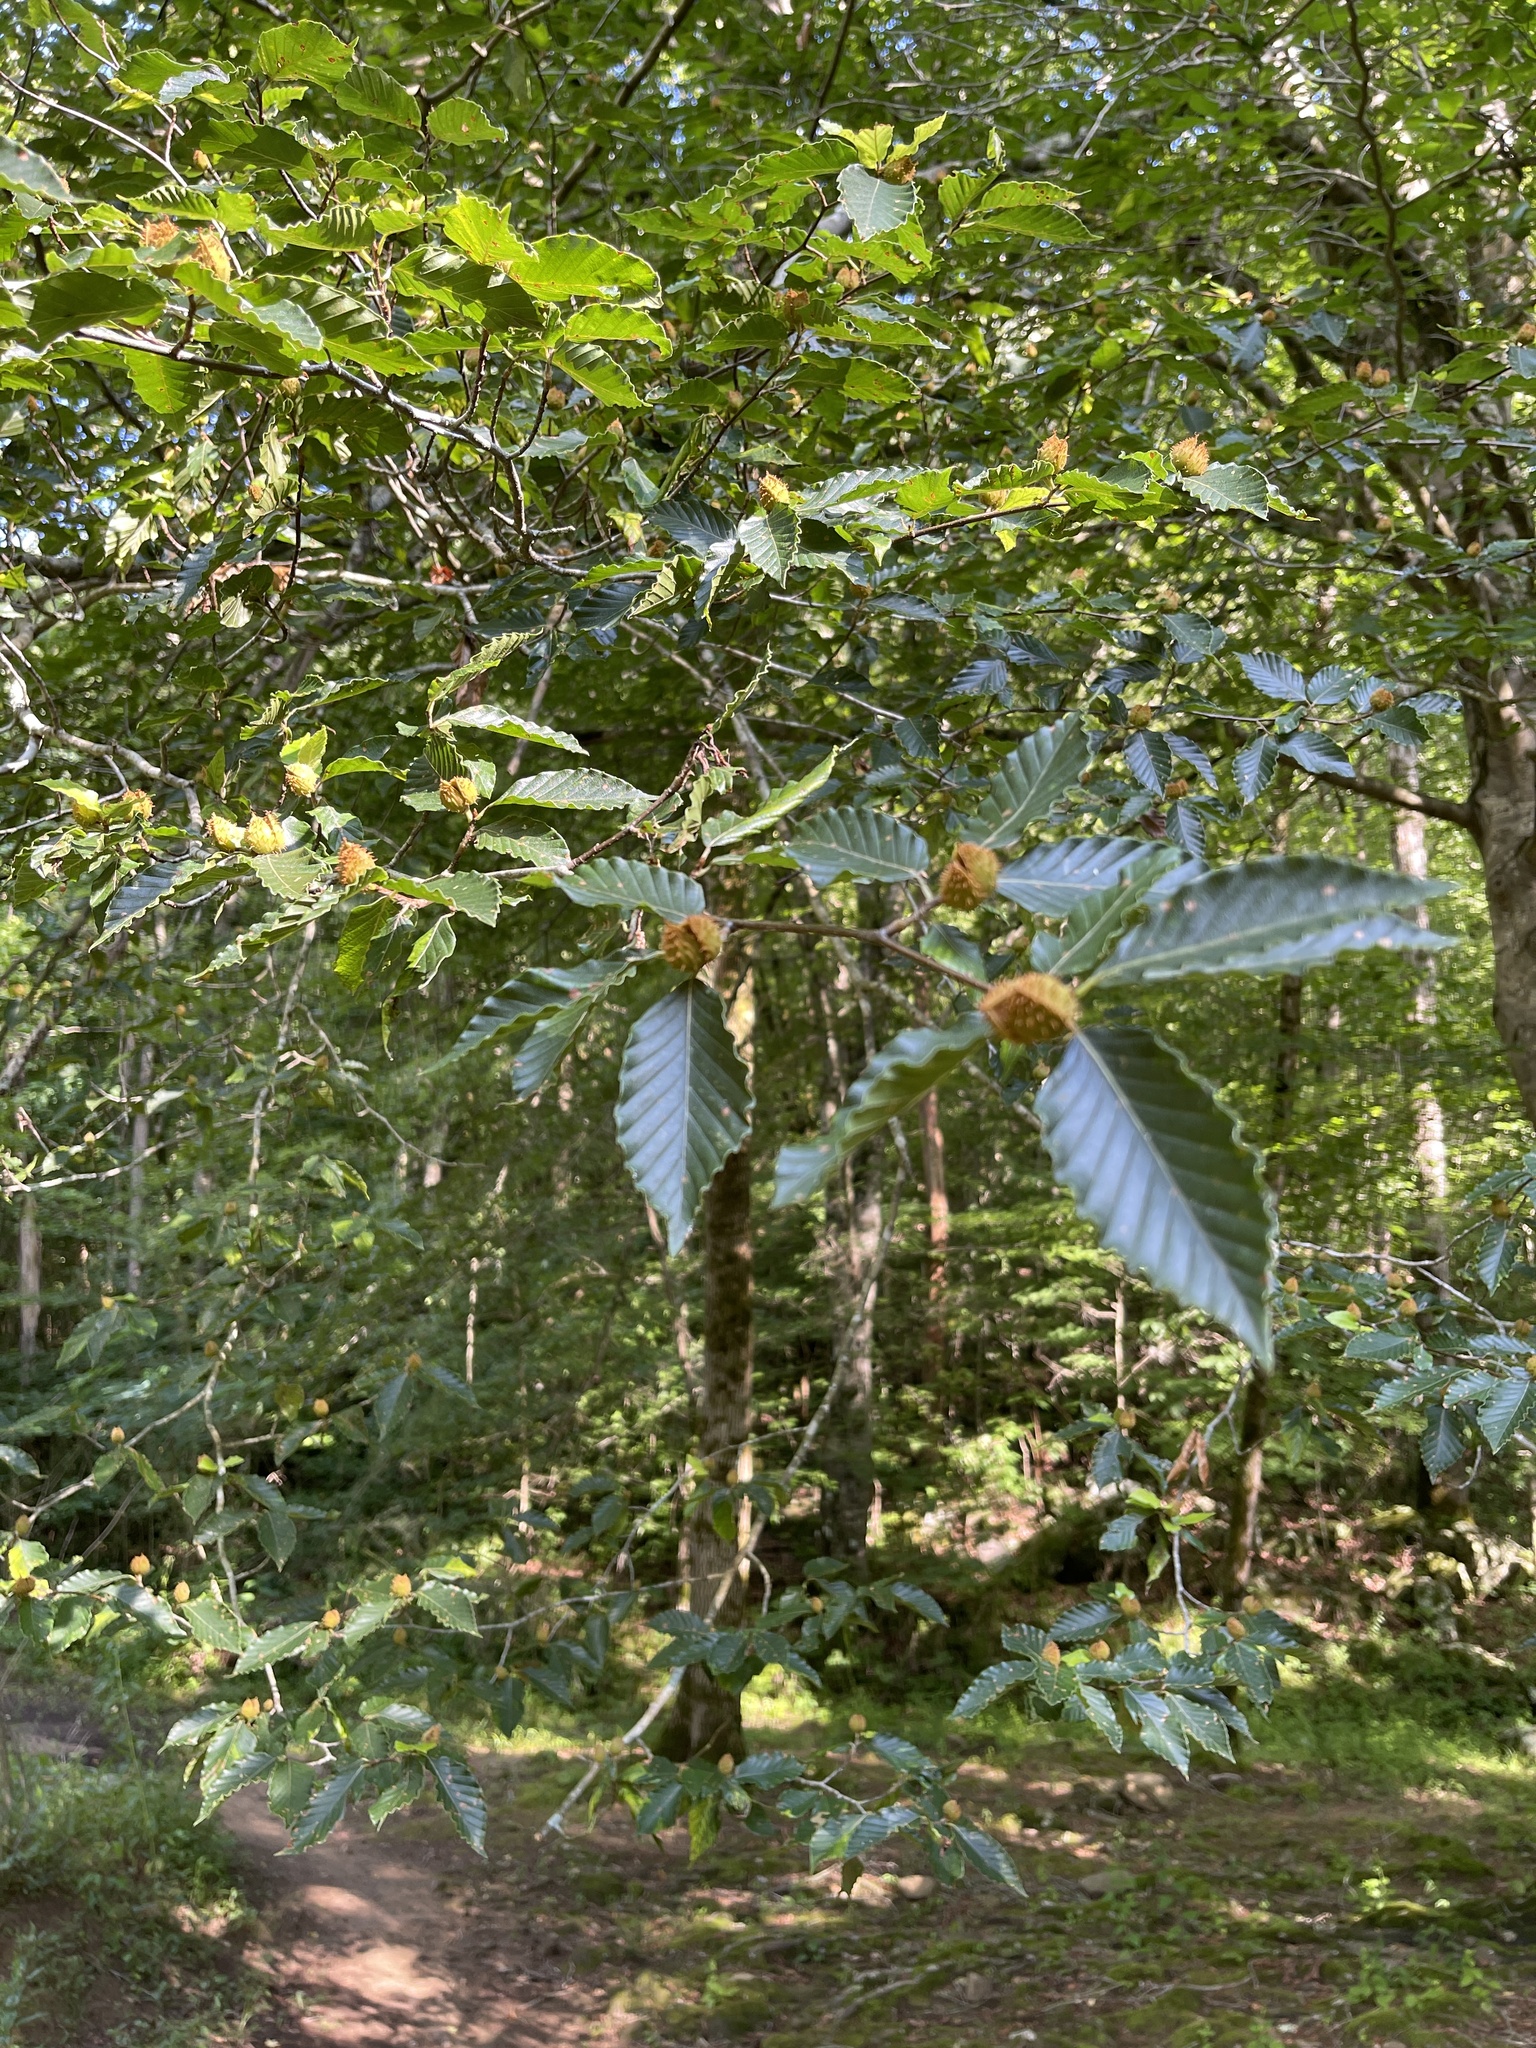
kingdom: Plantae
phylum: Tracheophyta
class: Magnoliopsida
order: Fagales
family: Fagaceae
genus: Fagus
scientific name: Fagus grandifolia
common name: American beech
